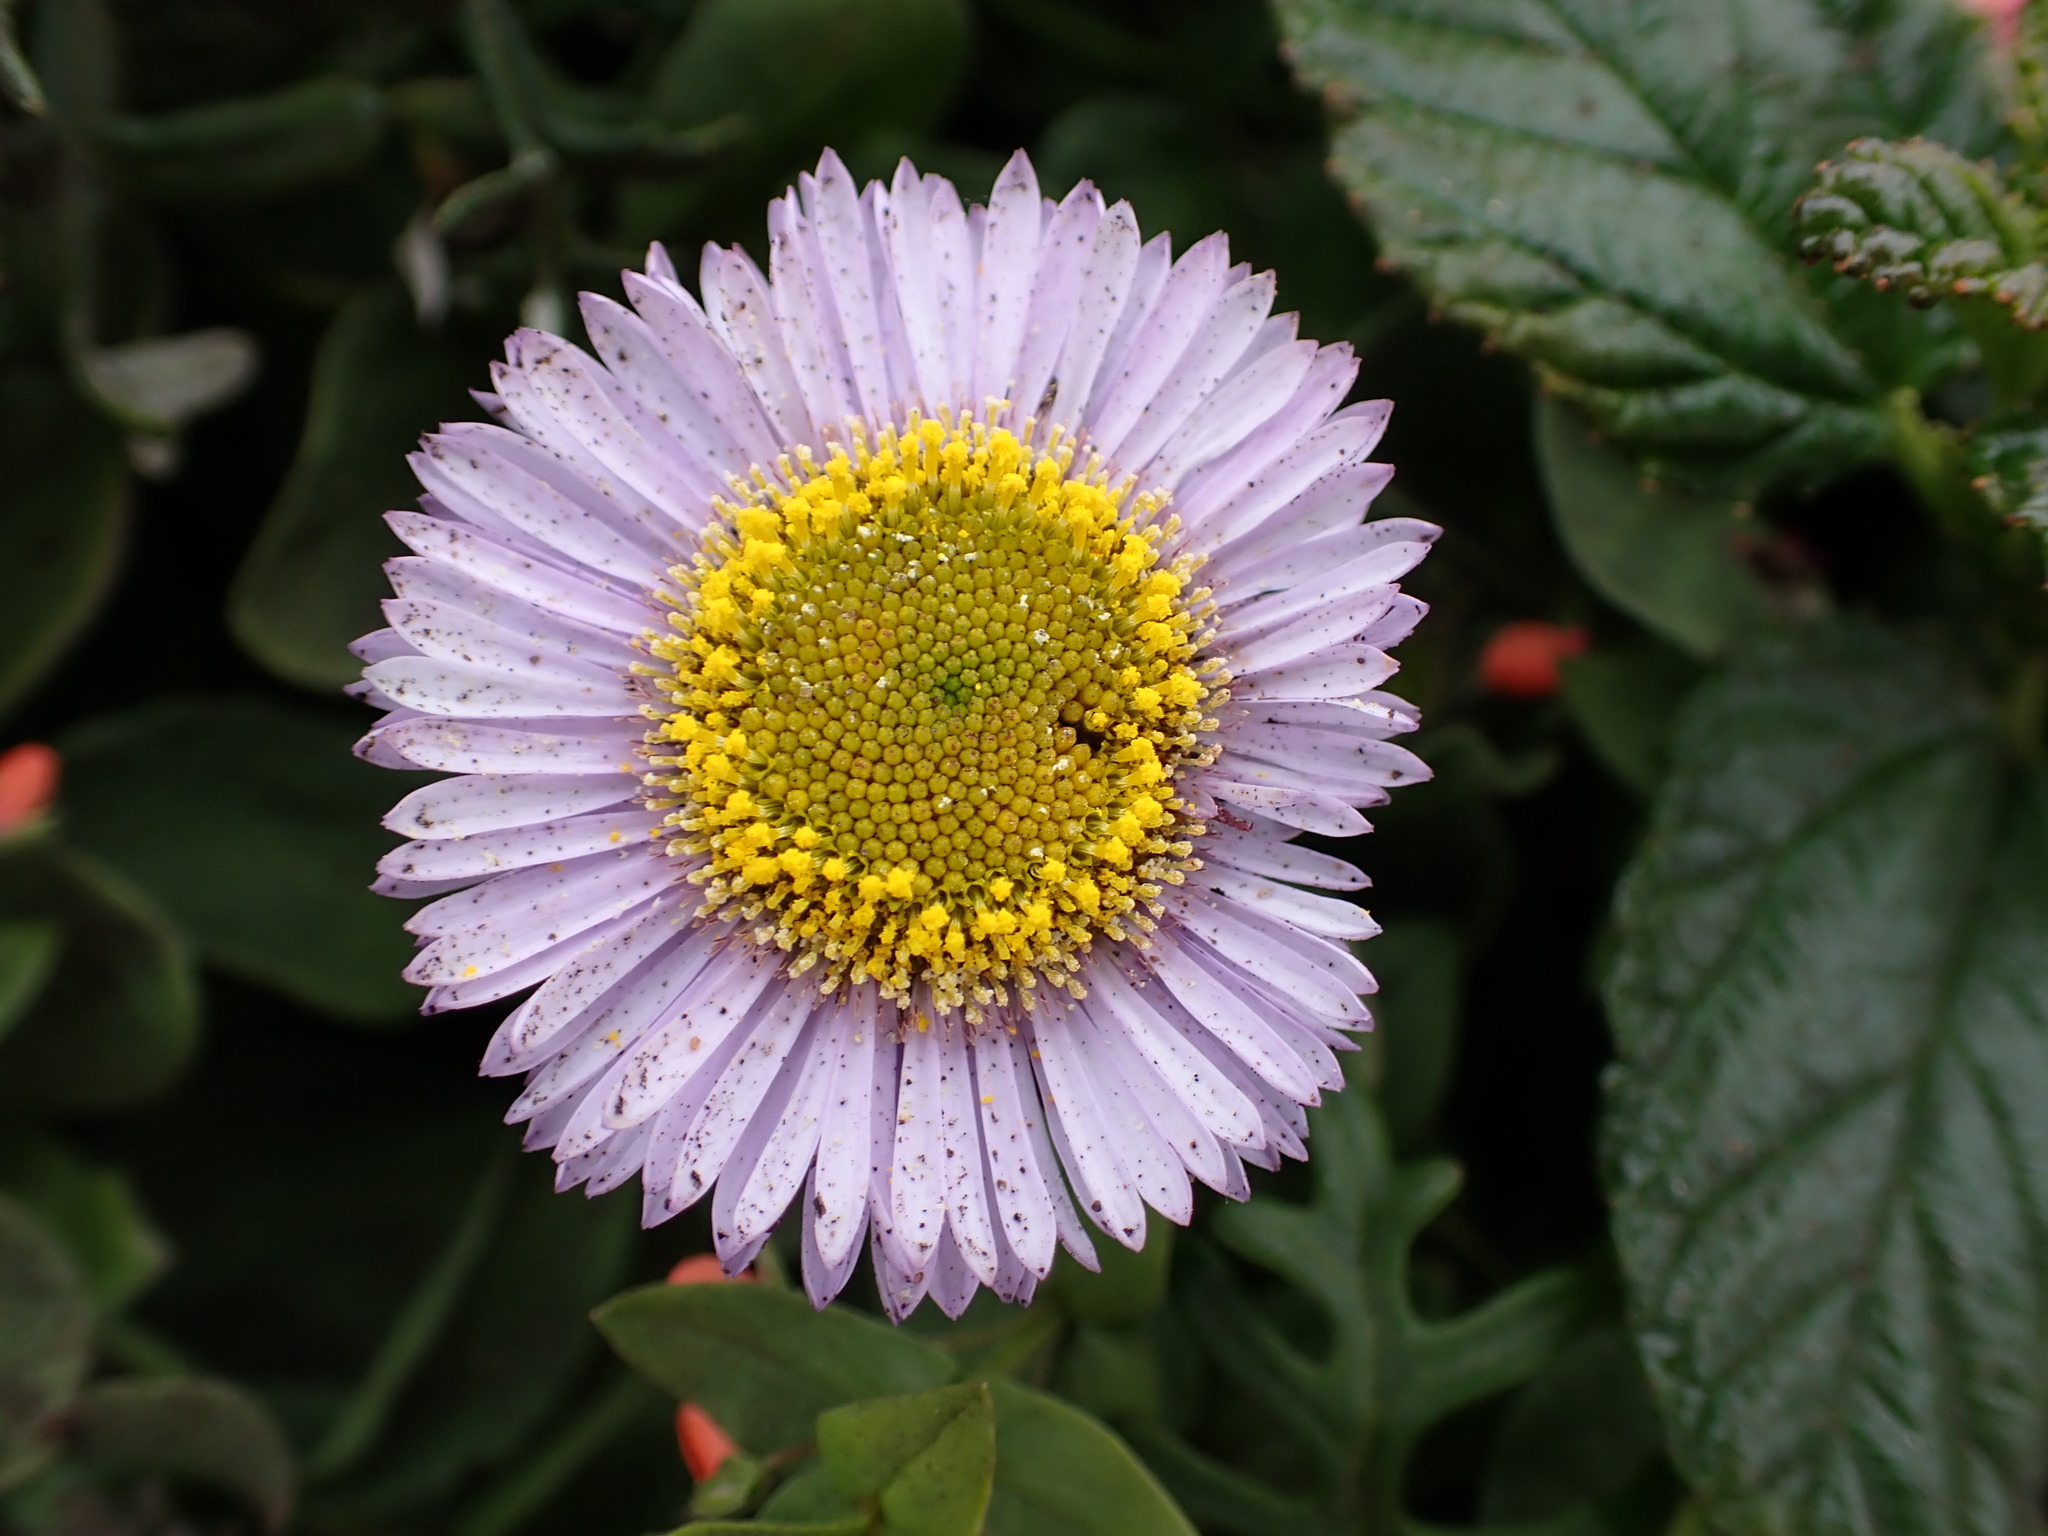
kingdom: Plantae
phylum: Tracheophyta
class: Magnoliopsida
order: Asterales
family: Asteraceae
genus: Erigeron
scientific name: Erigeron glaucus
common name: Seaside daisy
